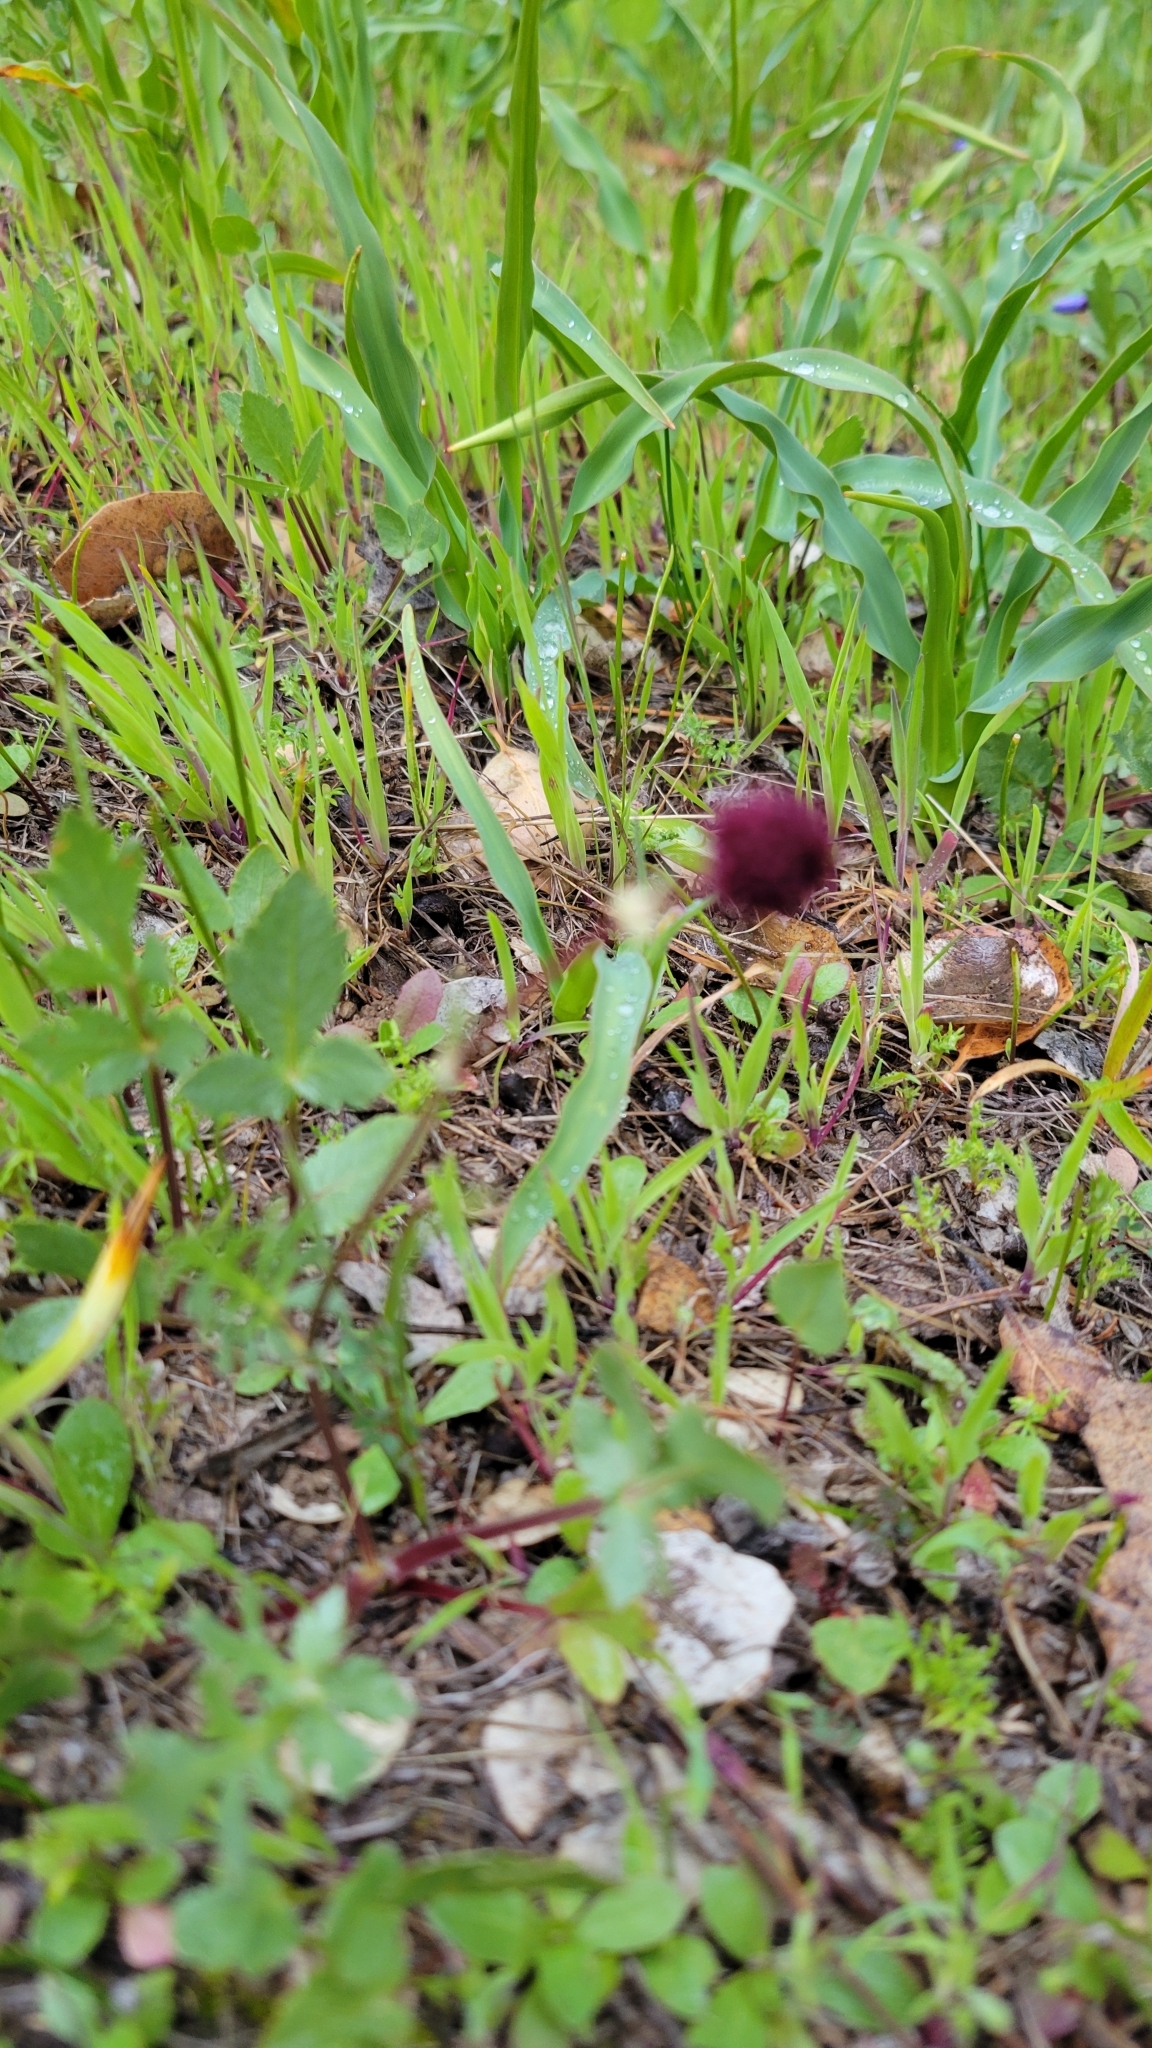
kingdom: Plantae
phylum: Tracheophyta
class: Magnoliopsida
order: Apiales
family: Apiaceae
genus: Sanicula
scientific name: Sanicula bipinnatifida
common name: Shoe-buttons
